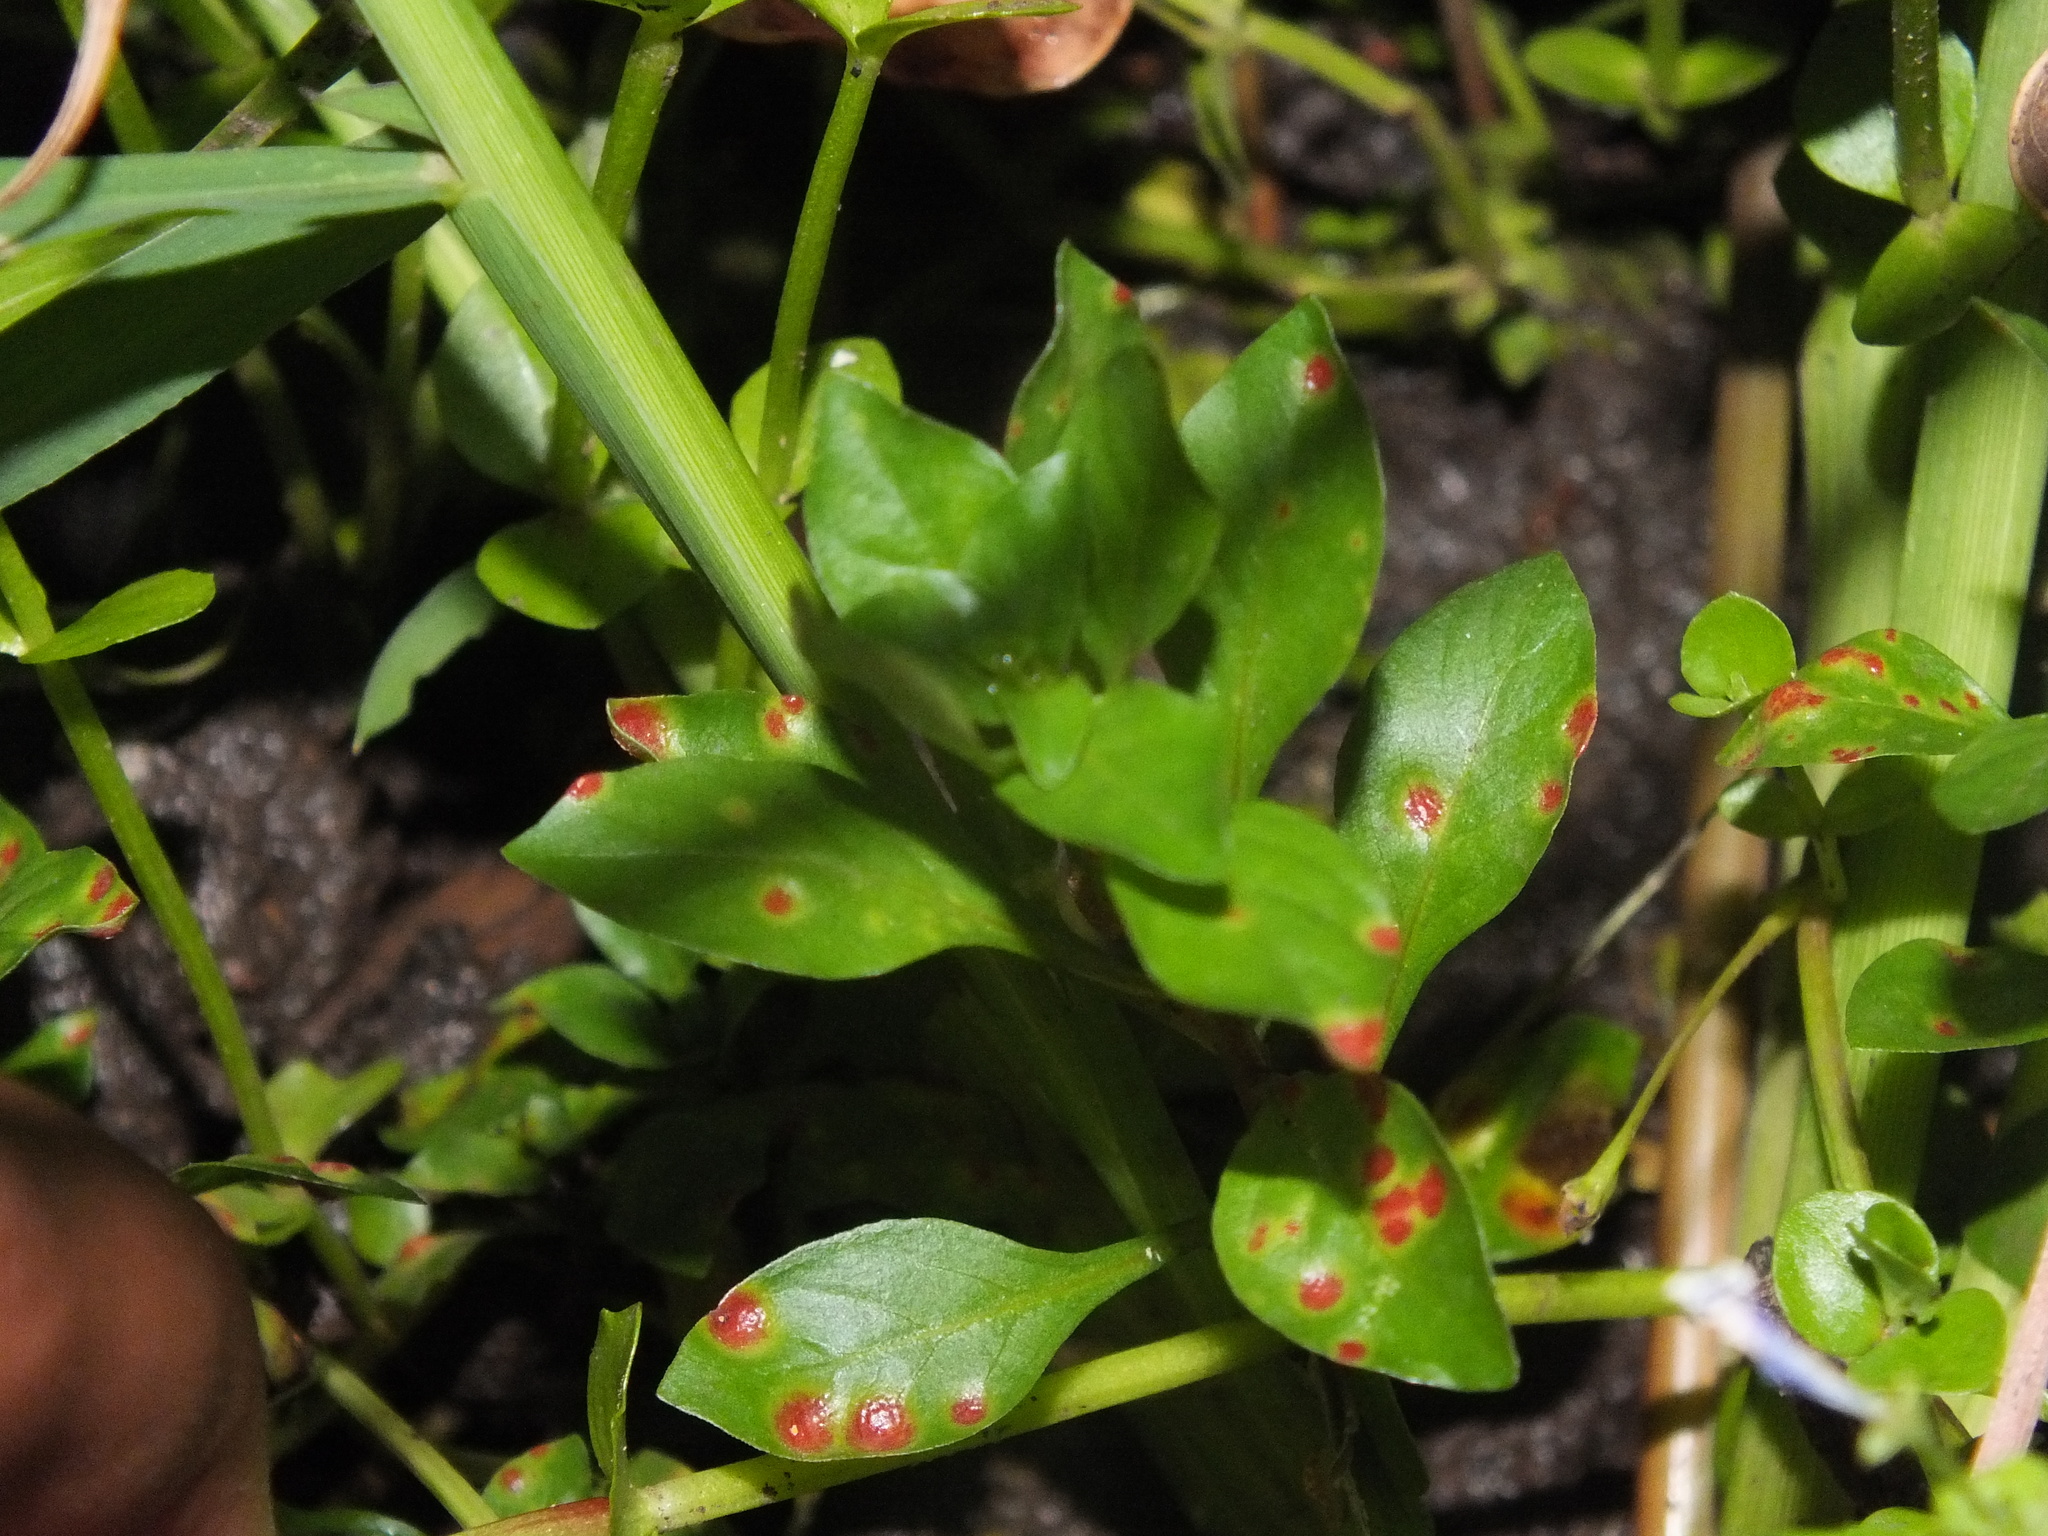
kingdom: Plantae
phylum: Tracheophyta
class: Magnoliopsida
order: Lamiales
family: Linderniaceae
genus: Lindernia
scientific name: Lindernia rotundifolia
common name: Baby’s tears
